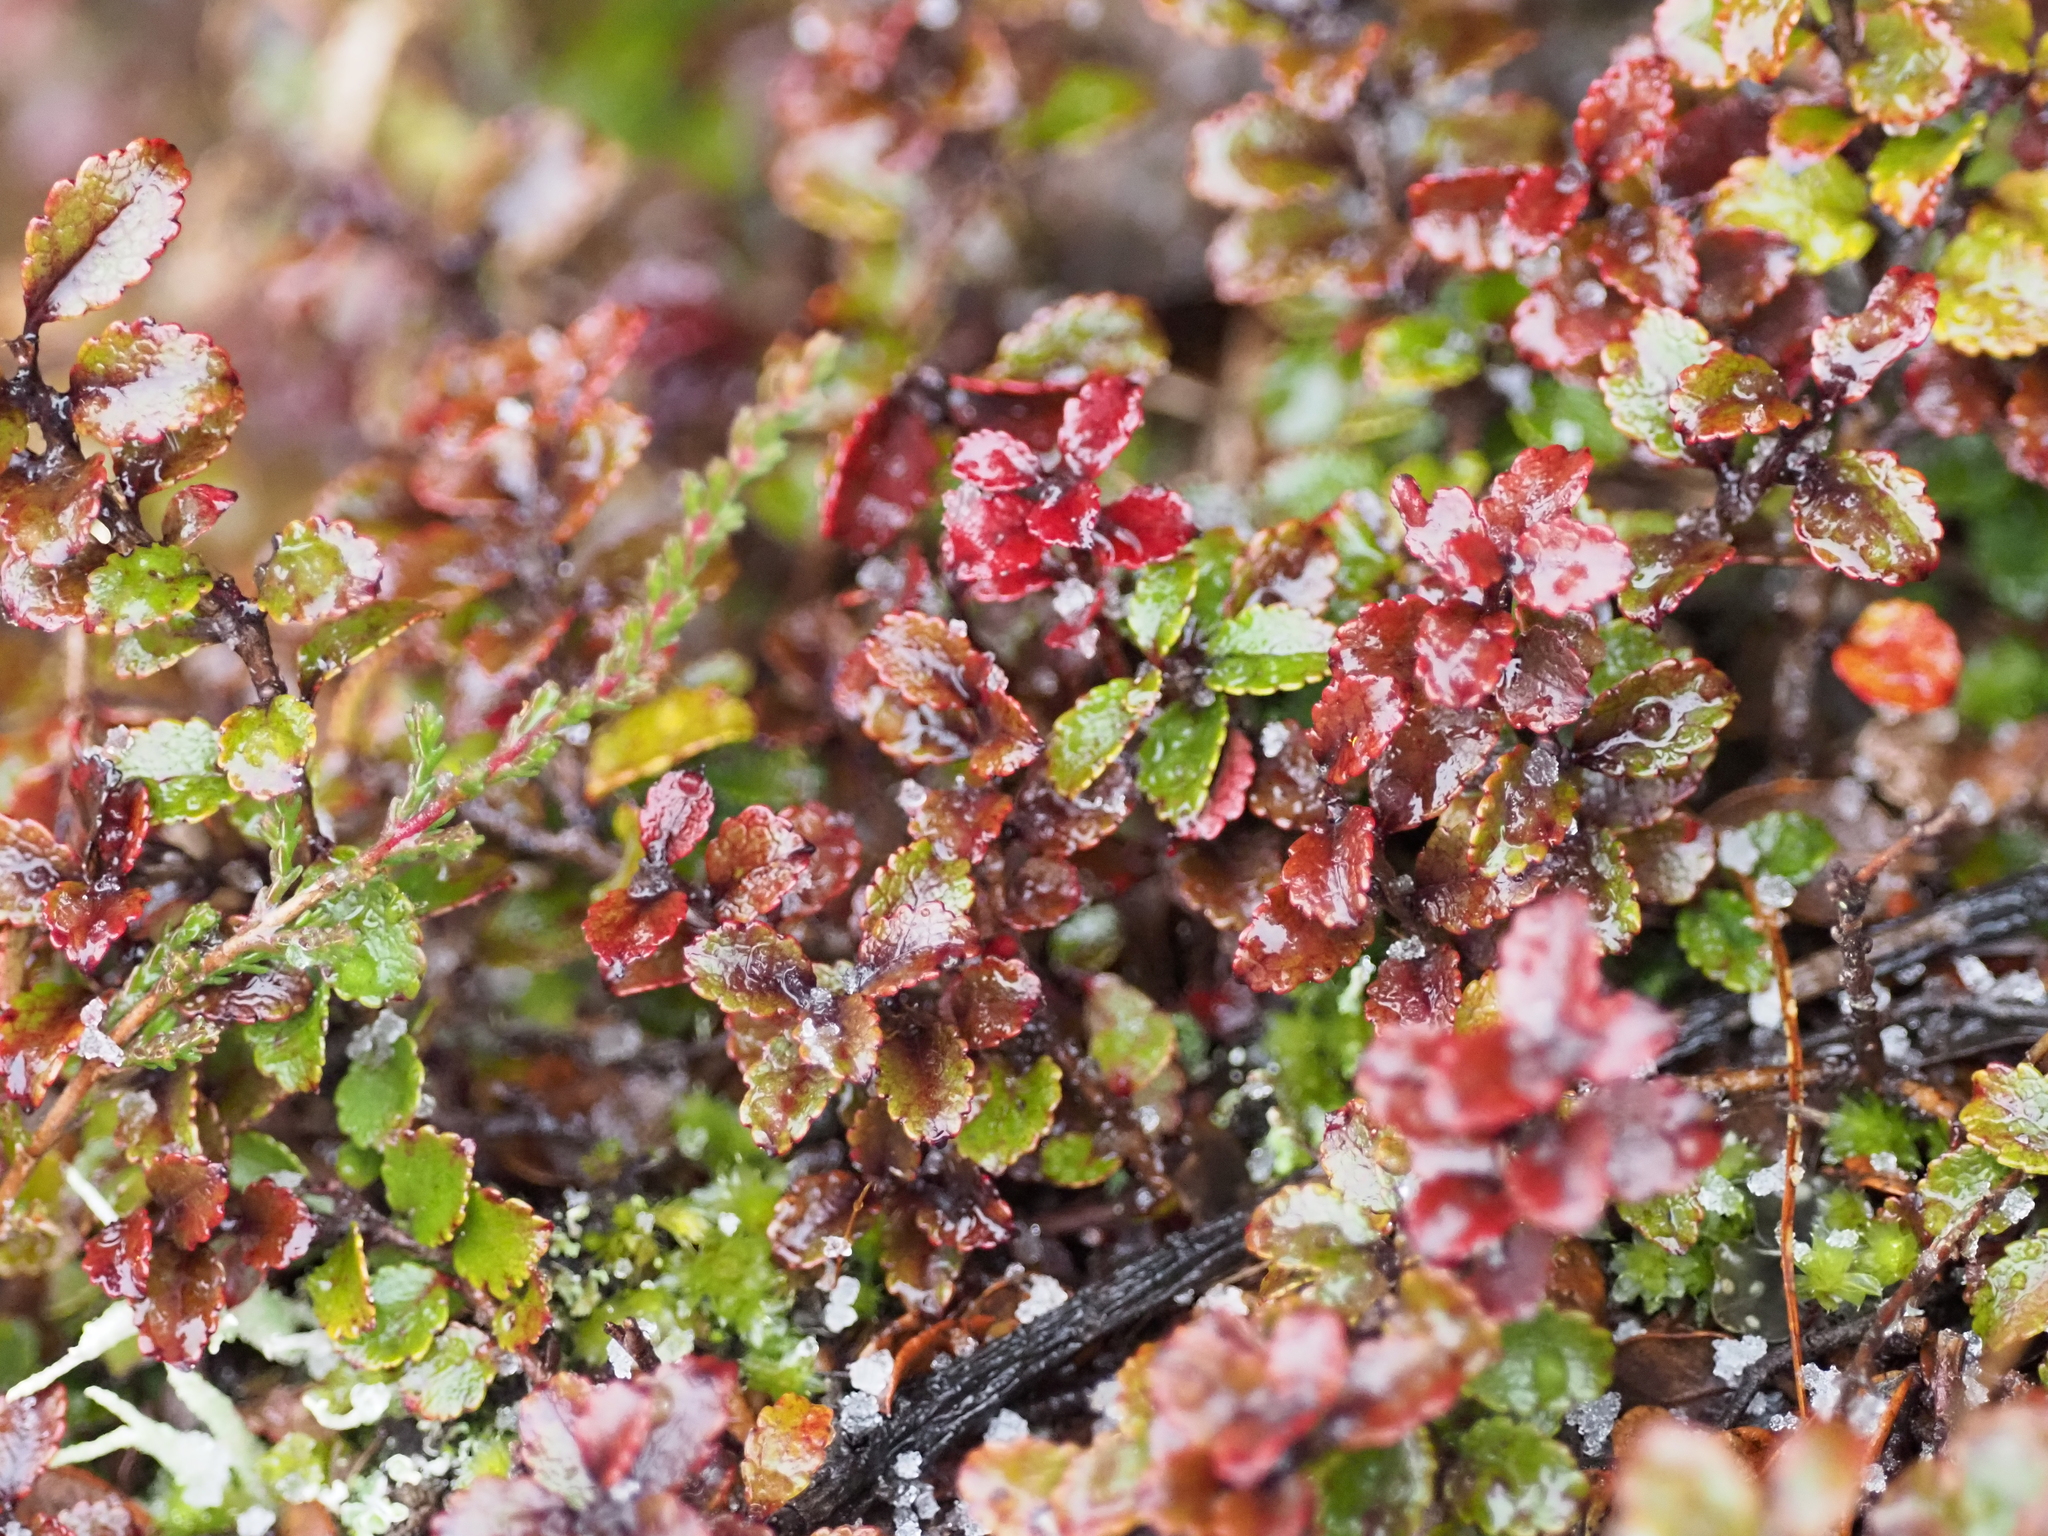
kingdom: Plantae
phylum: Tracheophyta
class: Magnoliopsida
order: Ericales
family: Ericaceae
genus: Gaultheria
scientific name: Gaultheria depressa
